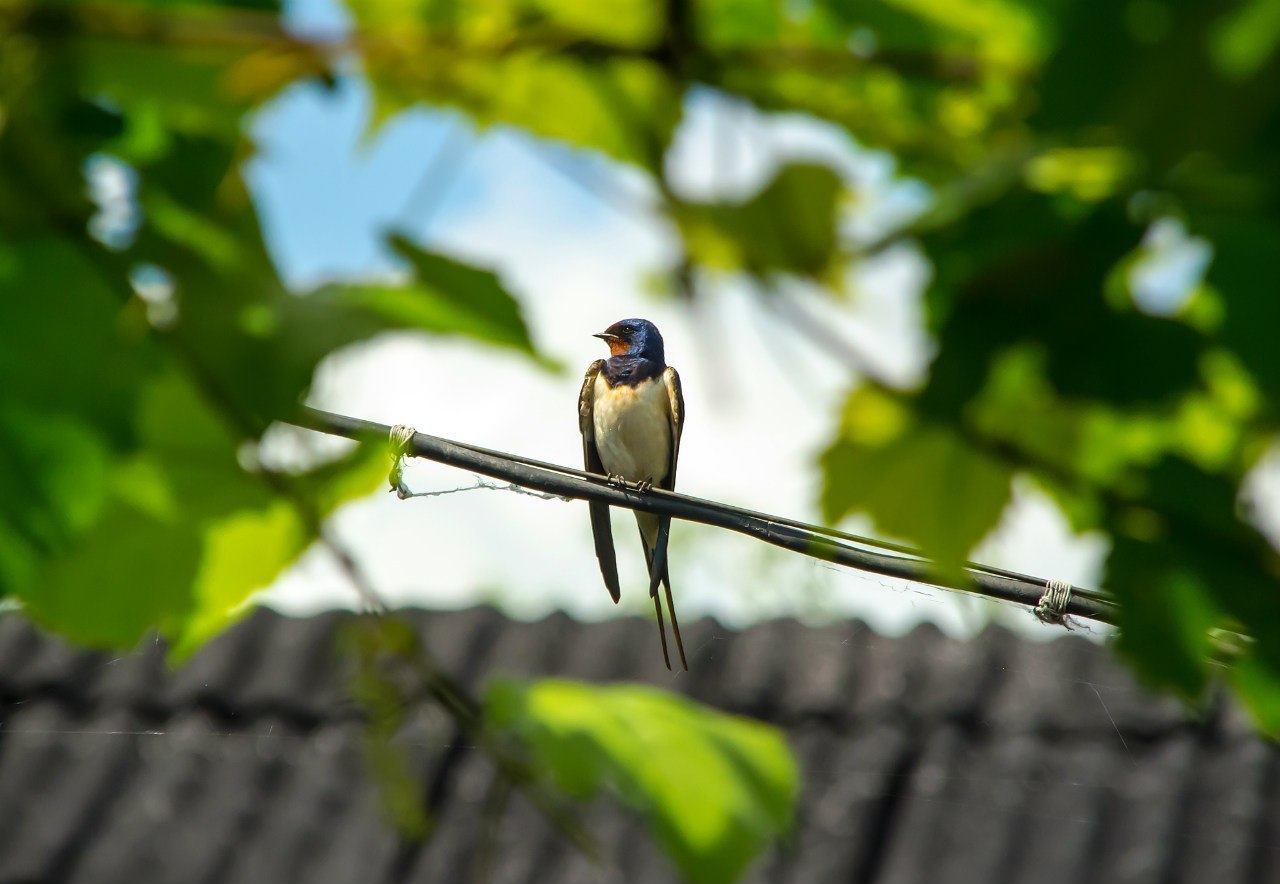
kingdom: Animalia
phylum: Chordata
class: Aves
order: Passeriformes
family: Hirundinidae
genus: Hirundo
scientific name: Hirundo rustica
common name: Barn swallow
